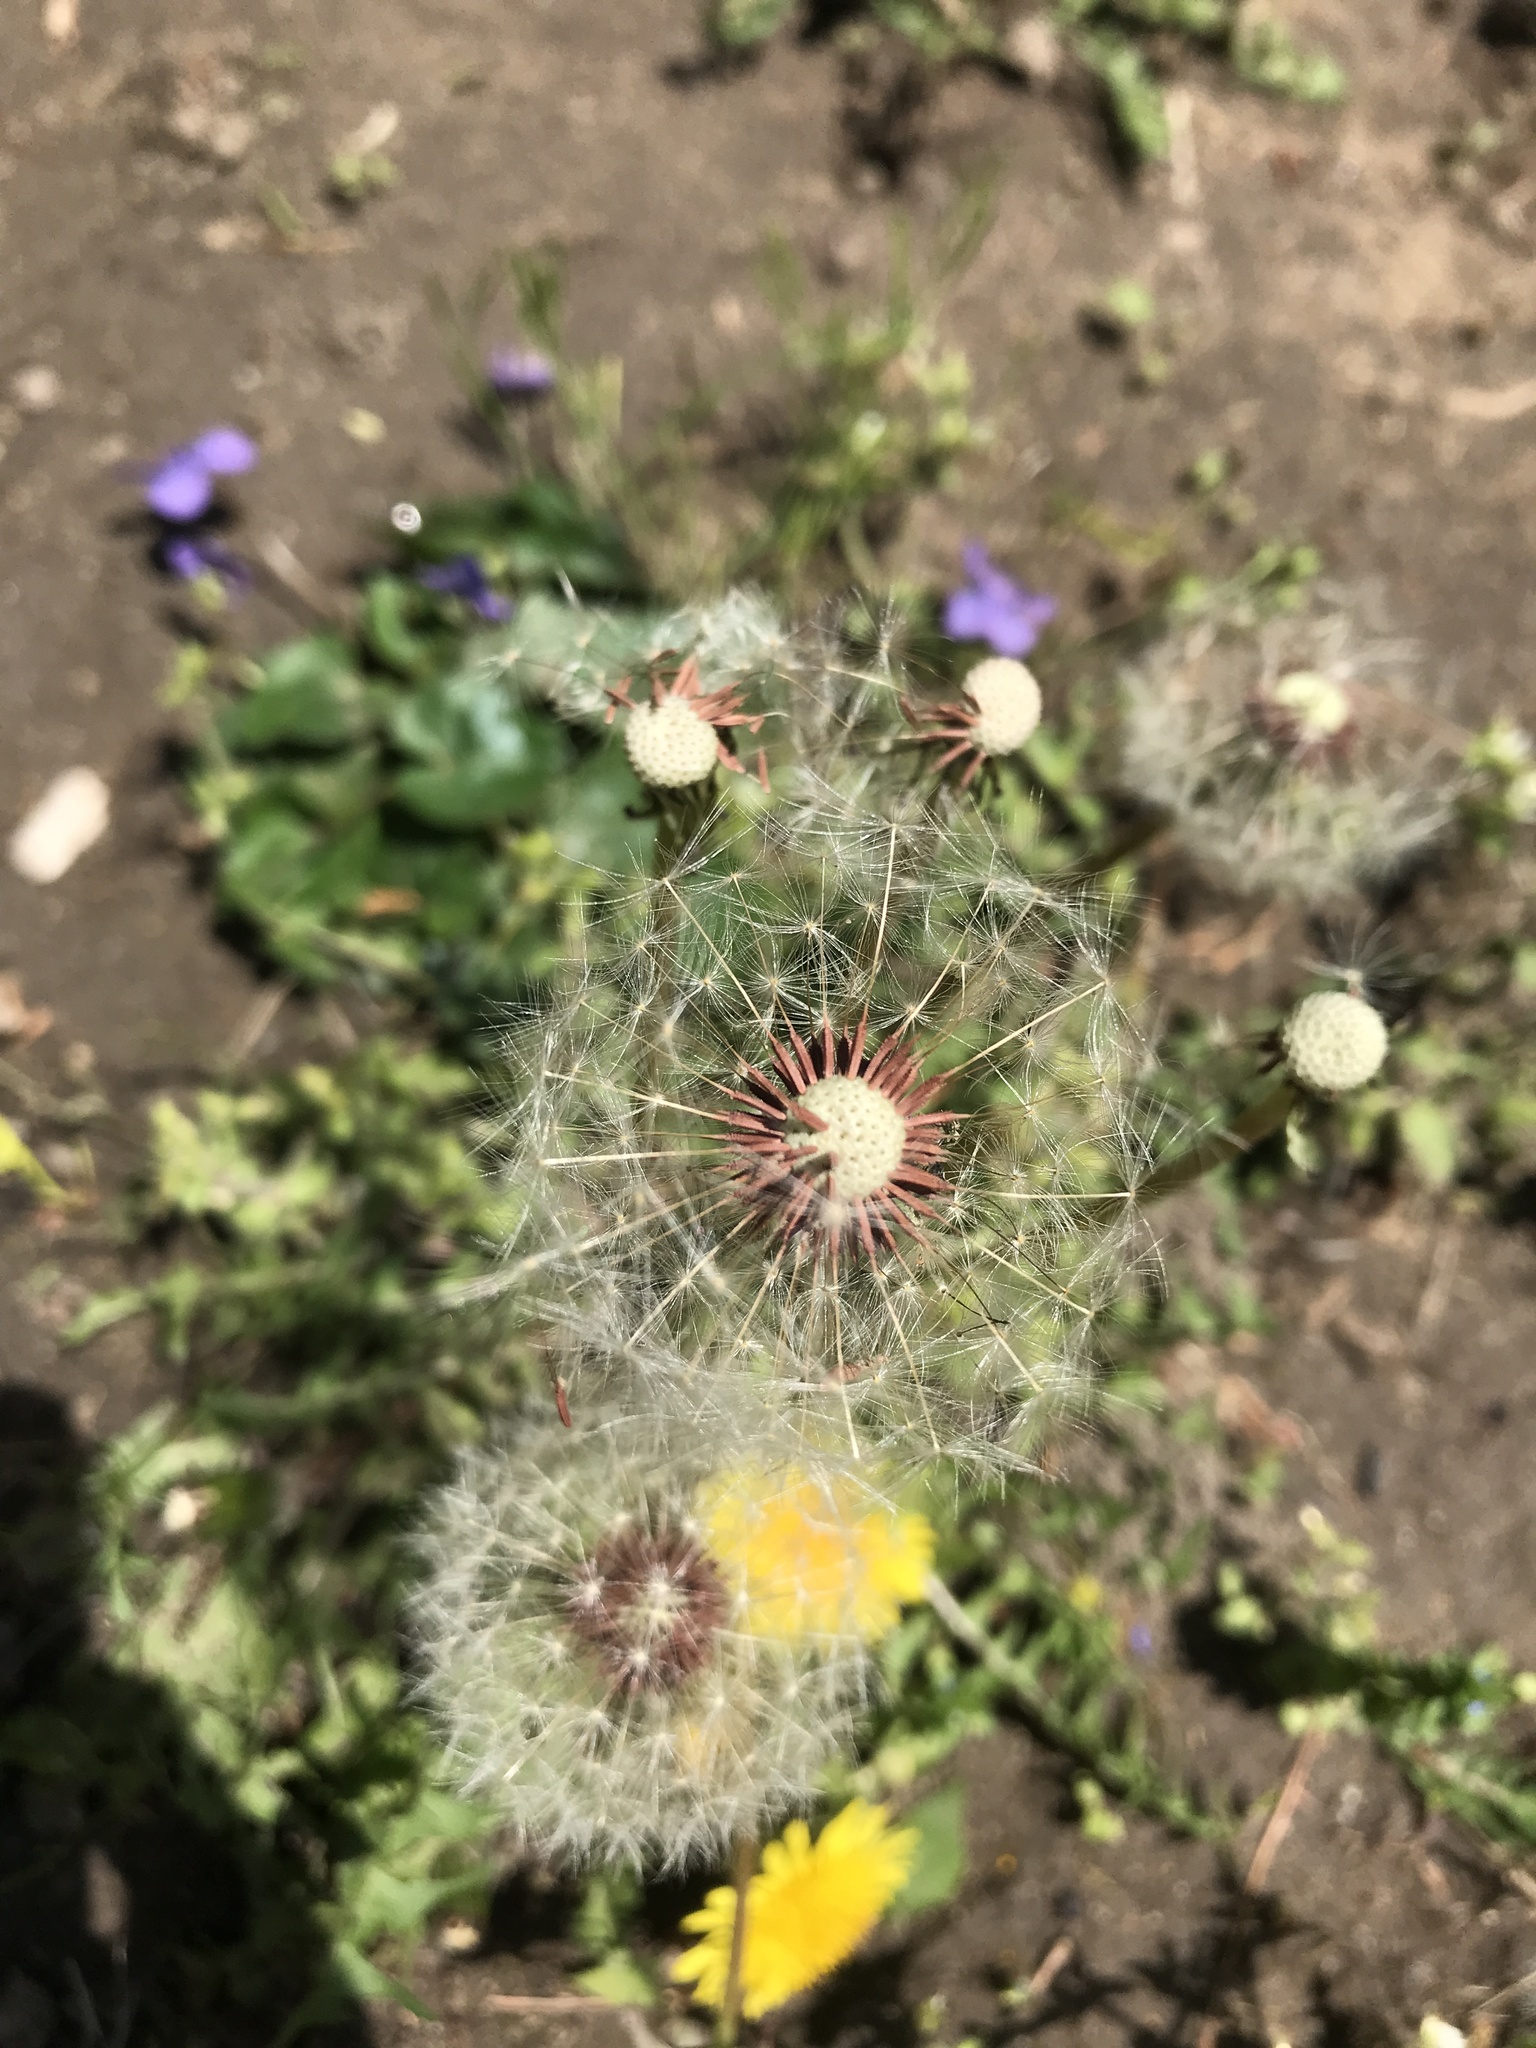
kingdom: Plantae
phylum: Tracheophyta
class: Magnoliopsida
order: Asterales
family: Asteraceae
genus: Taraxacum
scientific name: Taraxacum erythrospermum
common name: Rock dandelion
